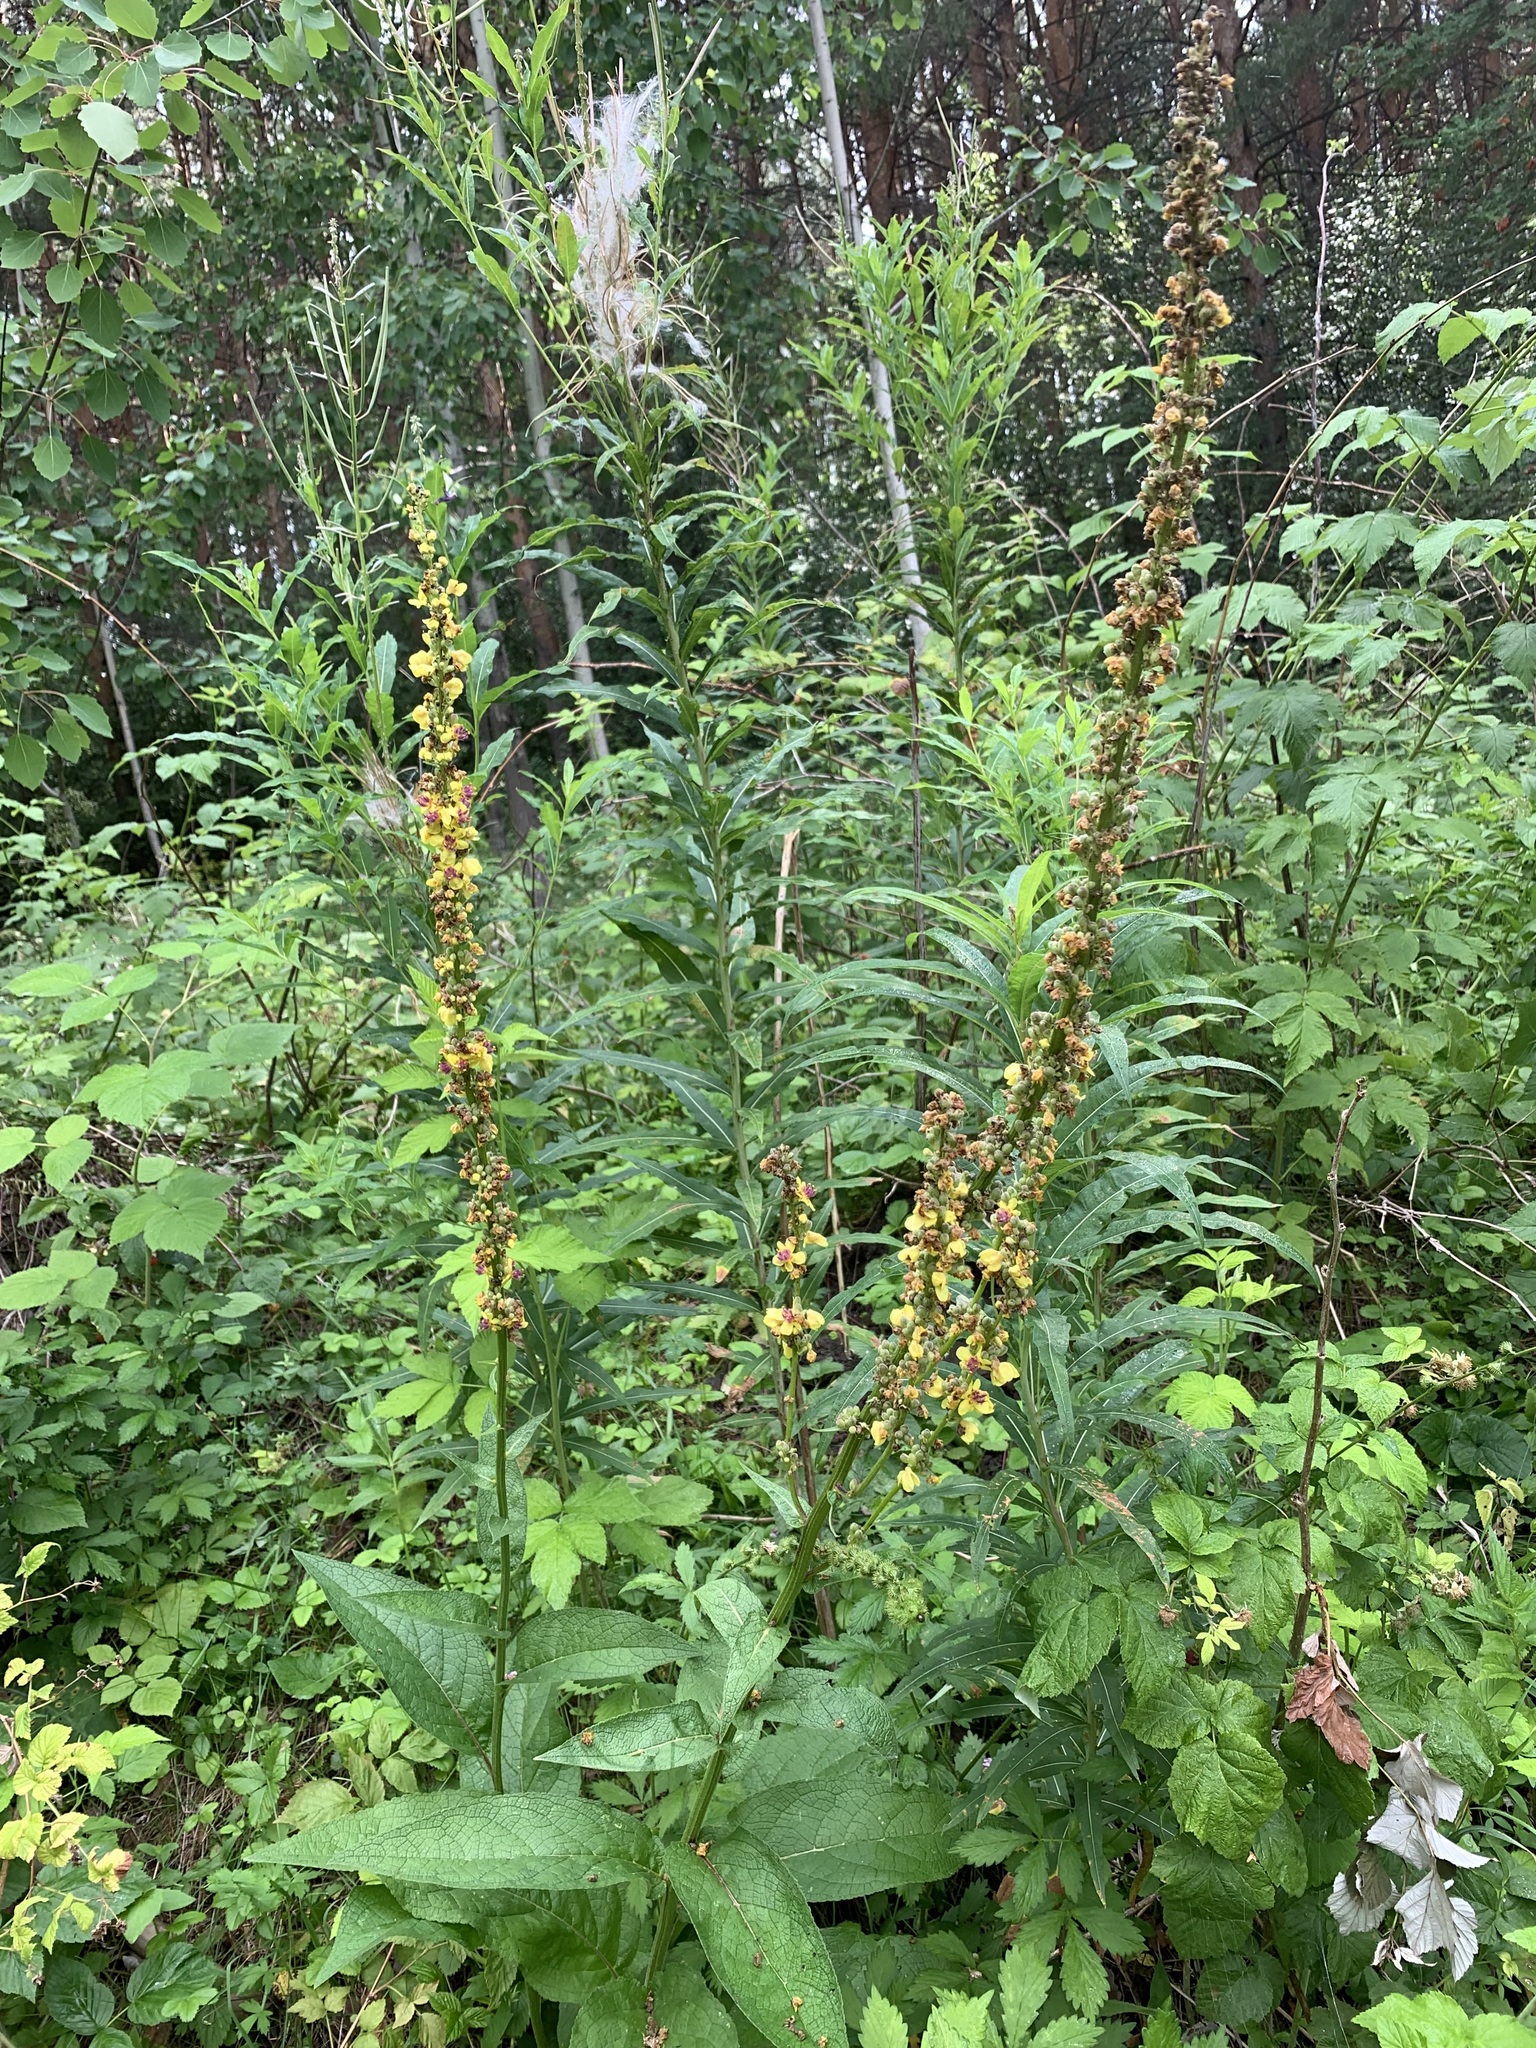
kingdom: Plantae
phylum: Tracheophyta
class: Magnoliopsida
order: Lamiales
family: Scrophulariaceae
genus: Verbascum
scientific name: Verbascum nigrum
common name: Dark mullein
